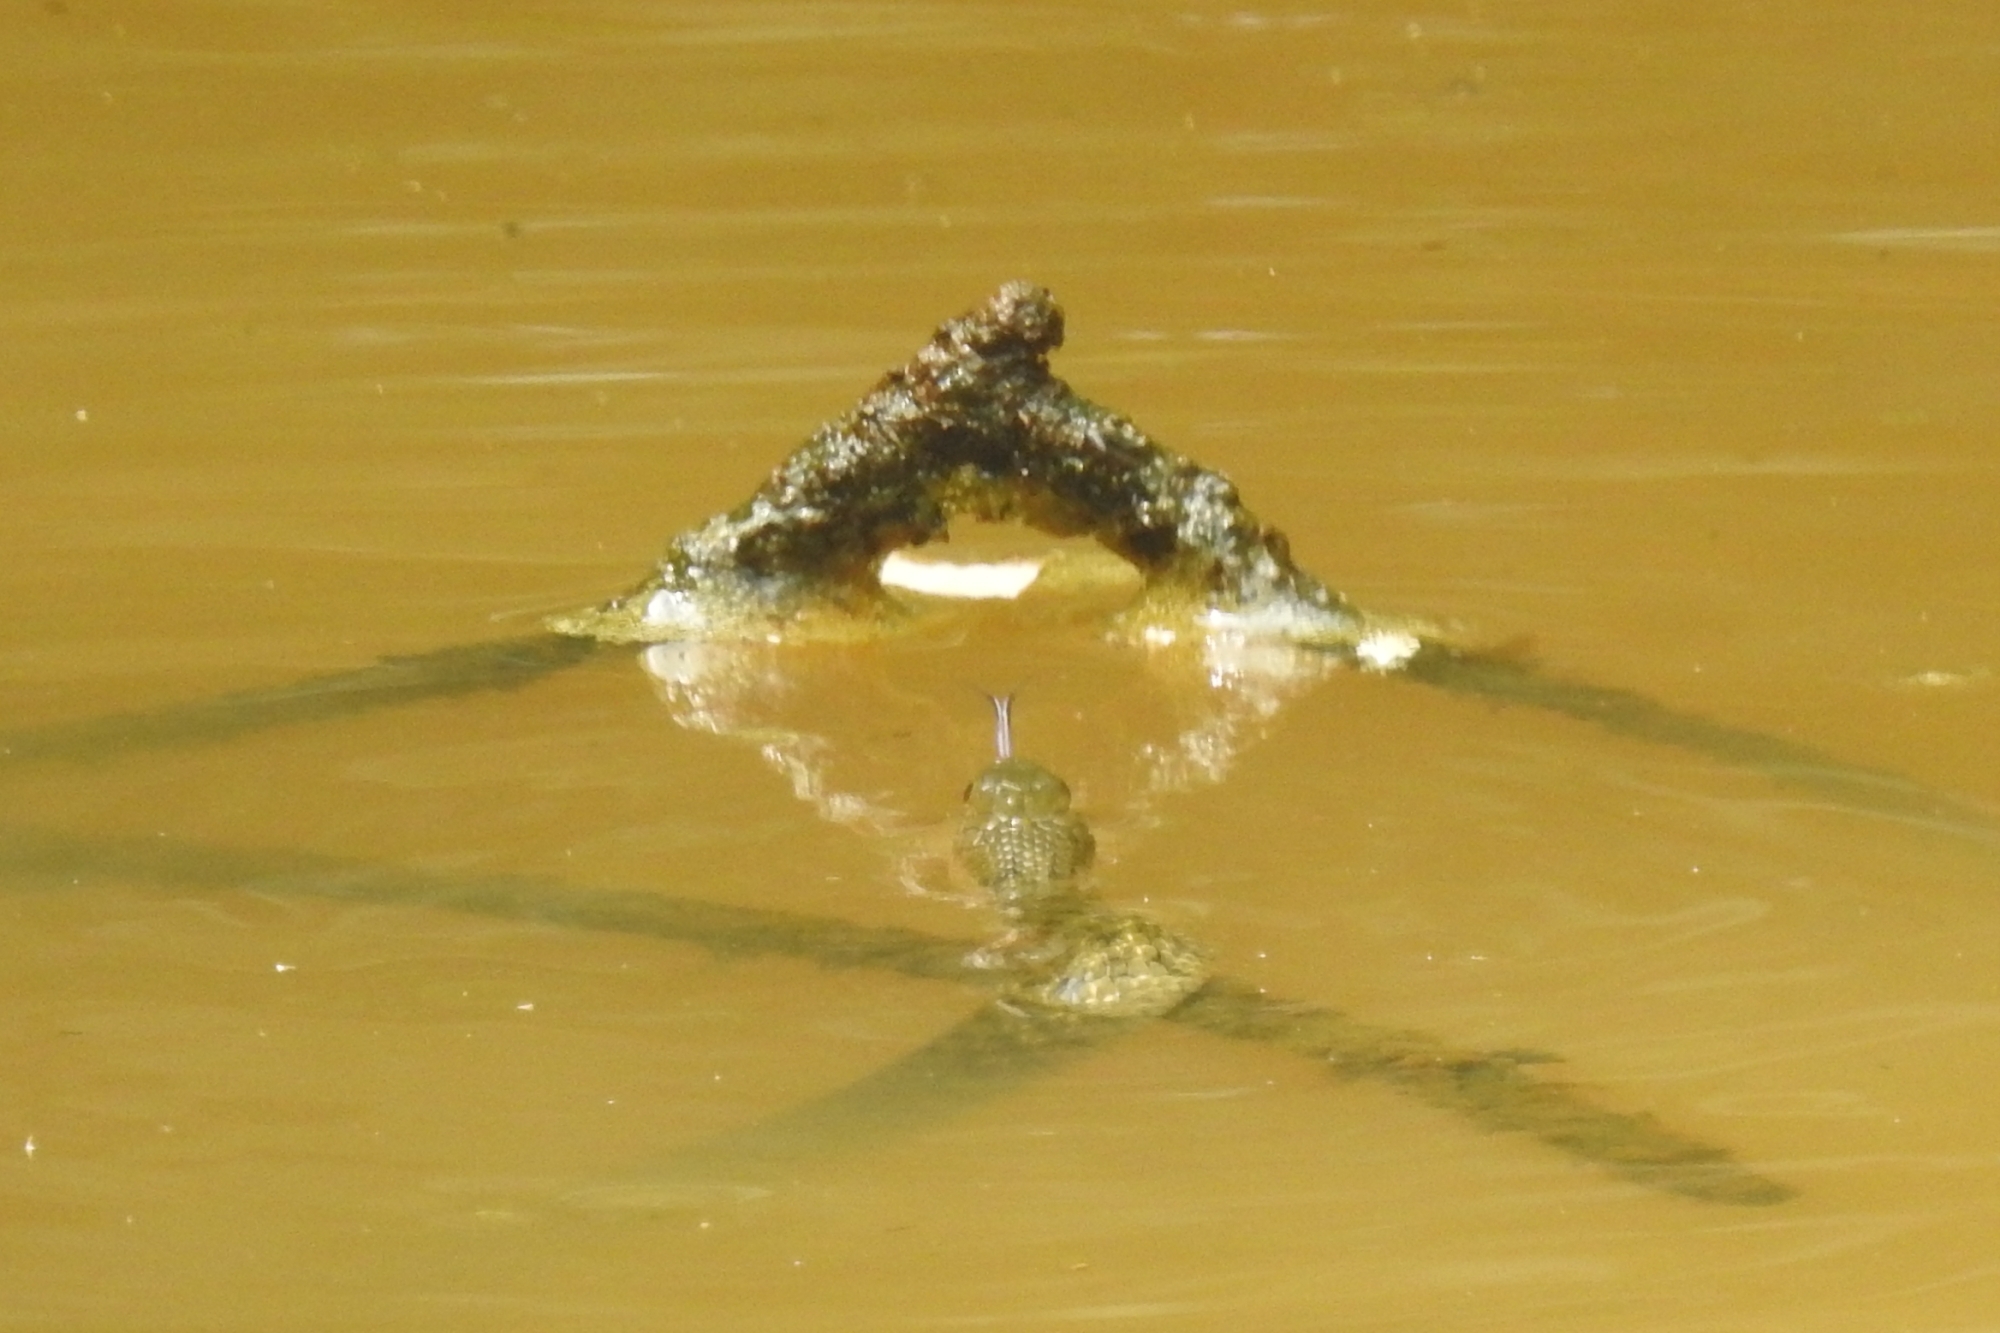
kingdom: Animalia
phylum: Chordata
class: Squamata
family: Colubridae
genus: Fowlea
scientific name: Fowlea piscator
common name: Asiatic water snake
